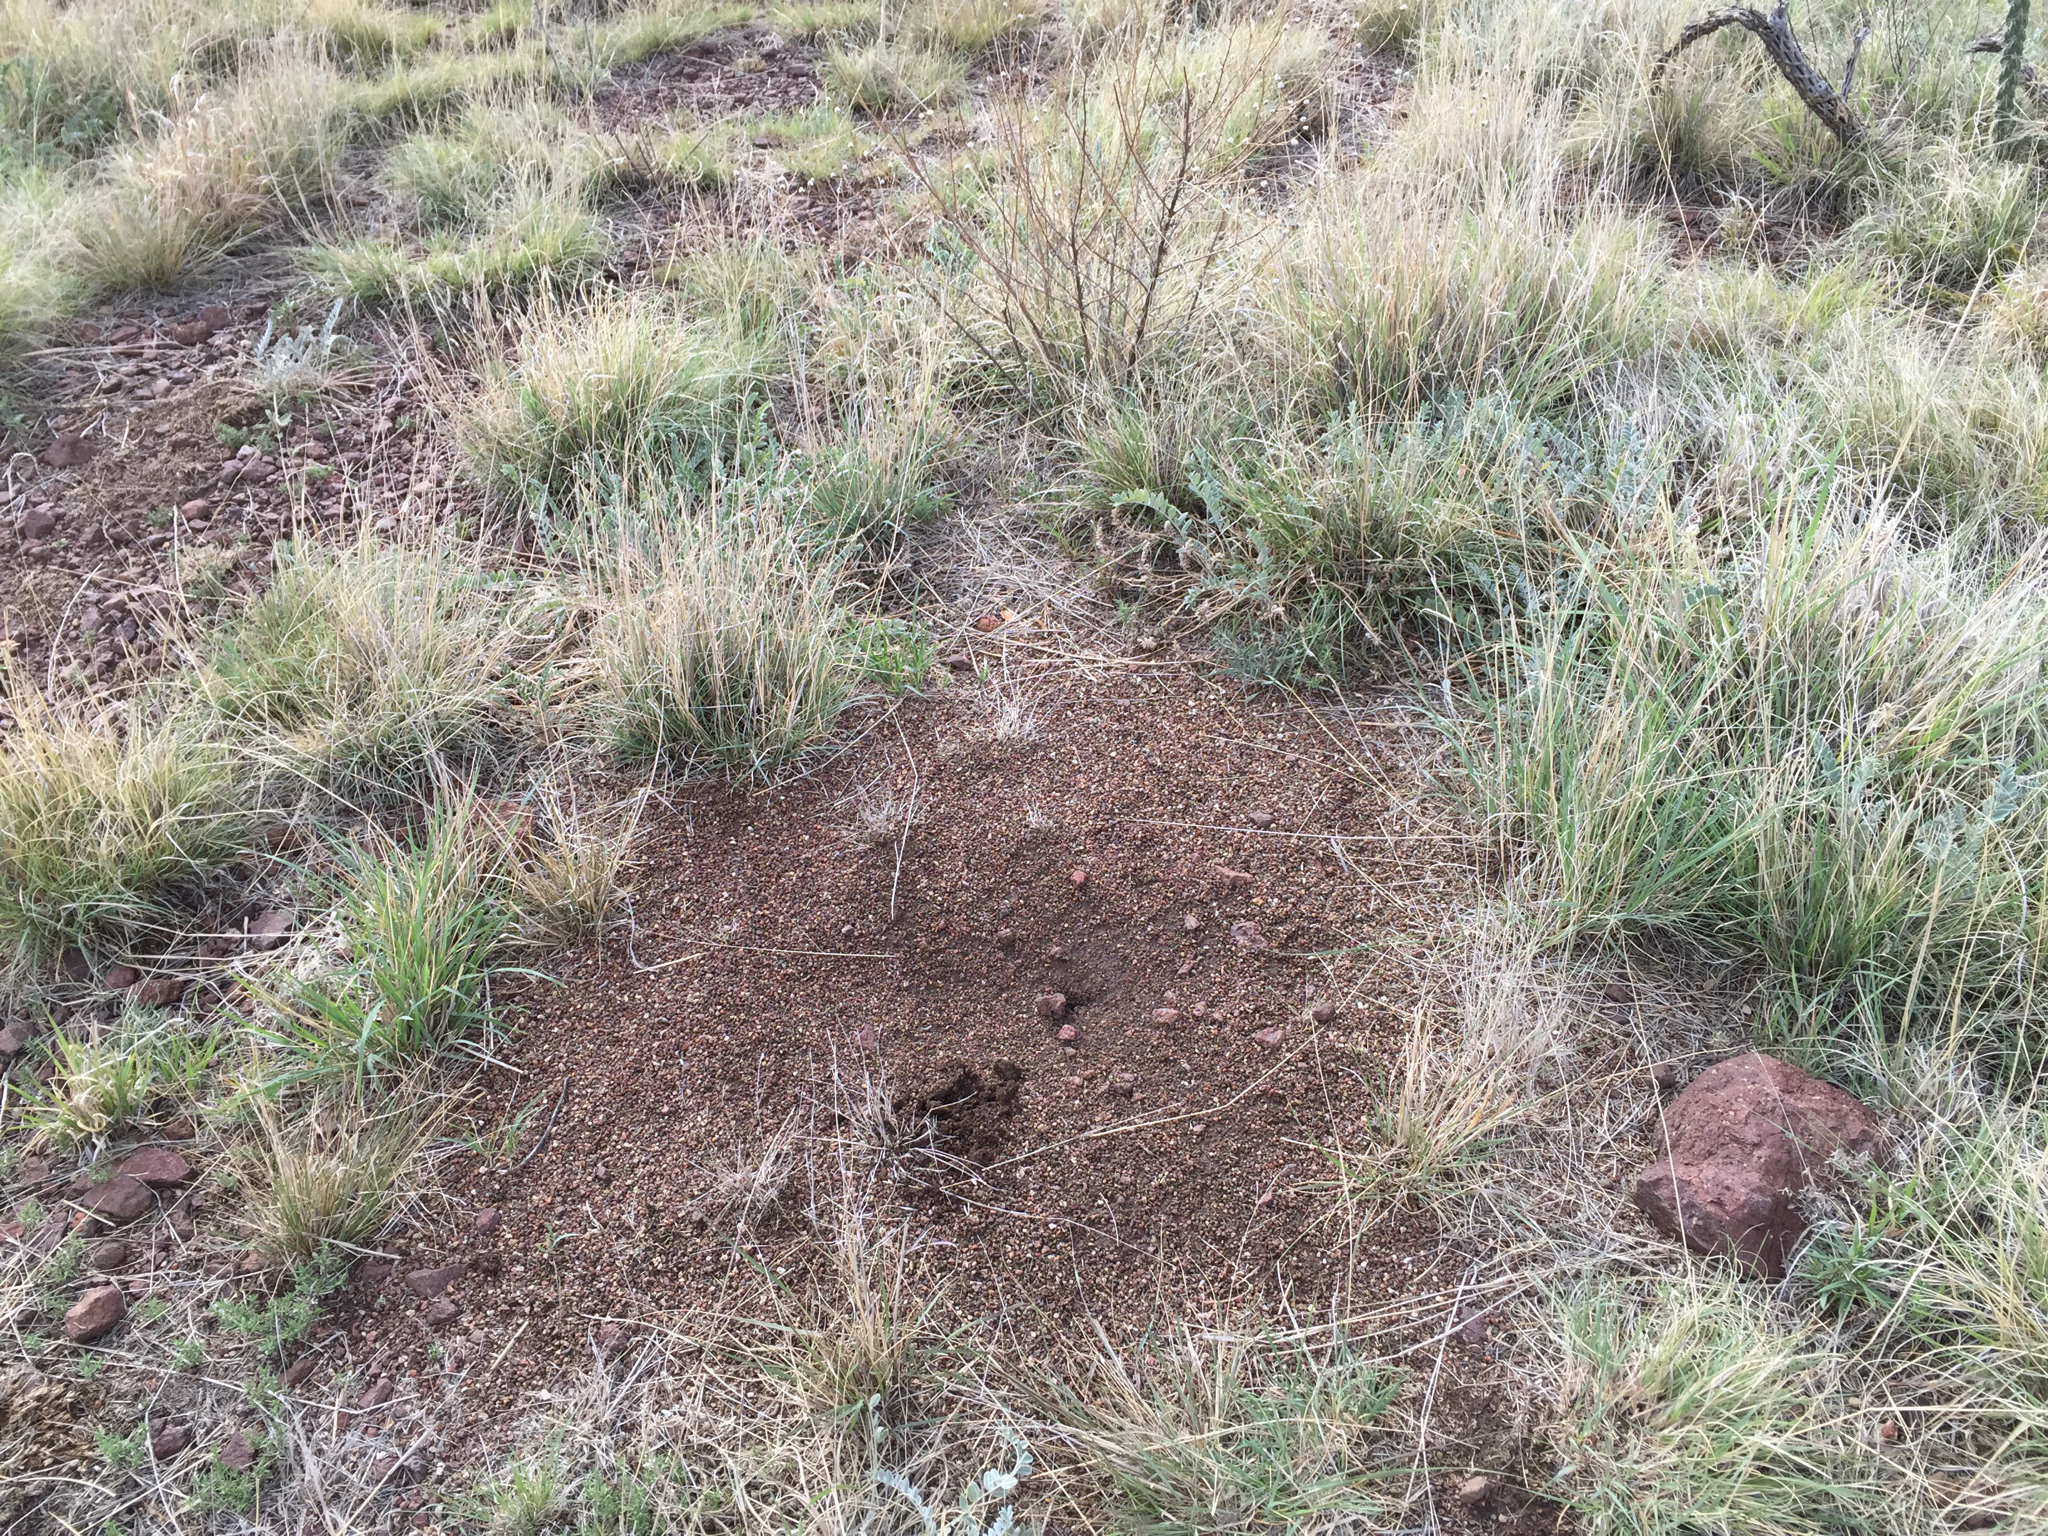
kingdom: Animalia
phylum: Arthropoda
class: Insecta
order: Hymenoptera
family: Formicidae
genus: Pogonomyrmex
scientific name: Pogonomyrmex rugosus
